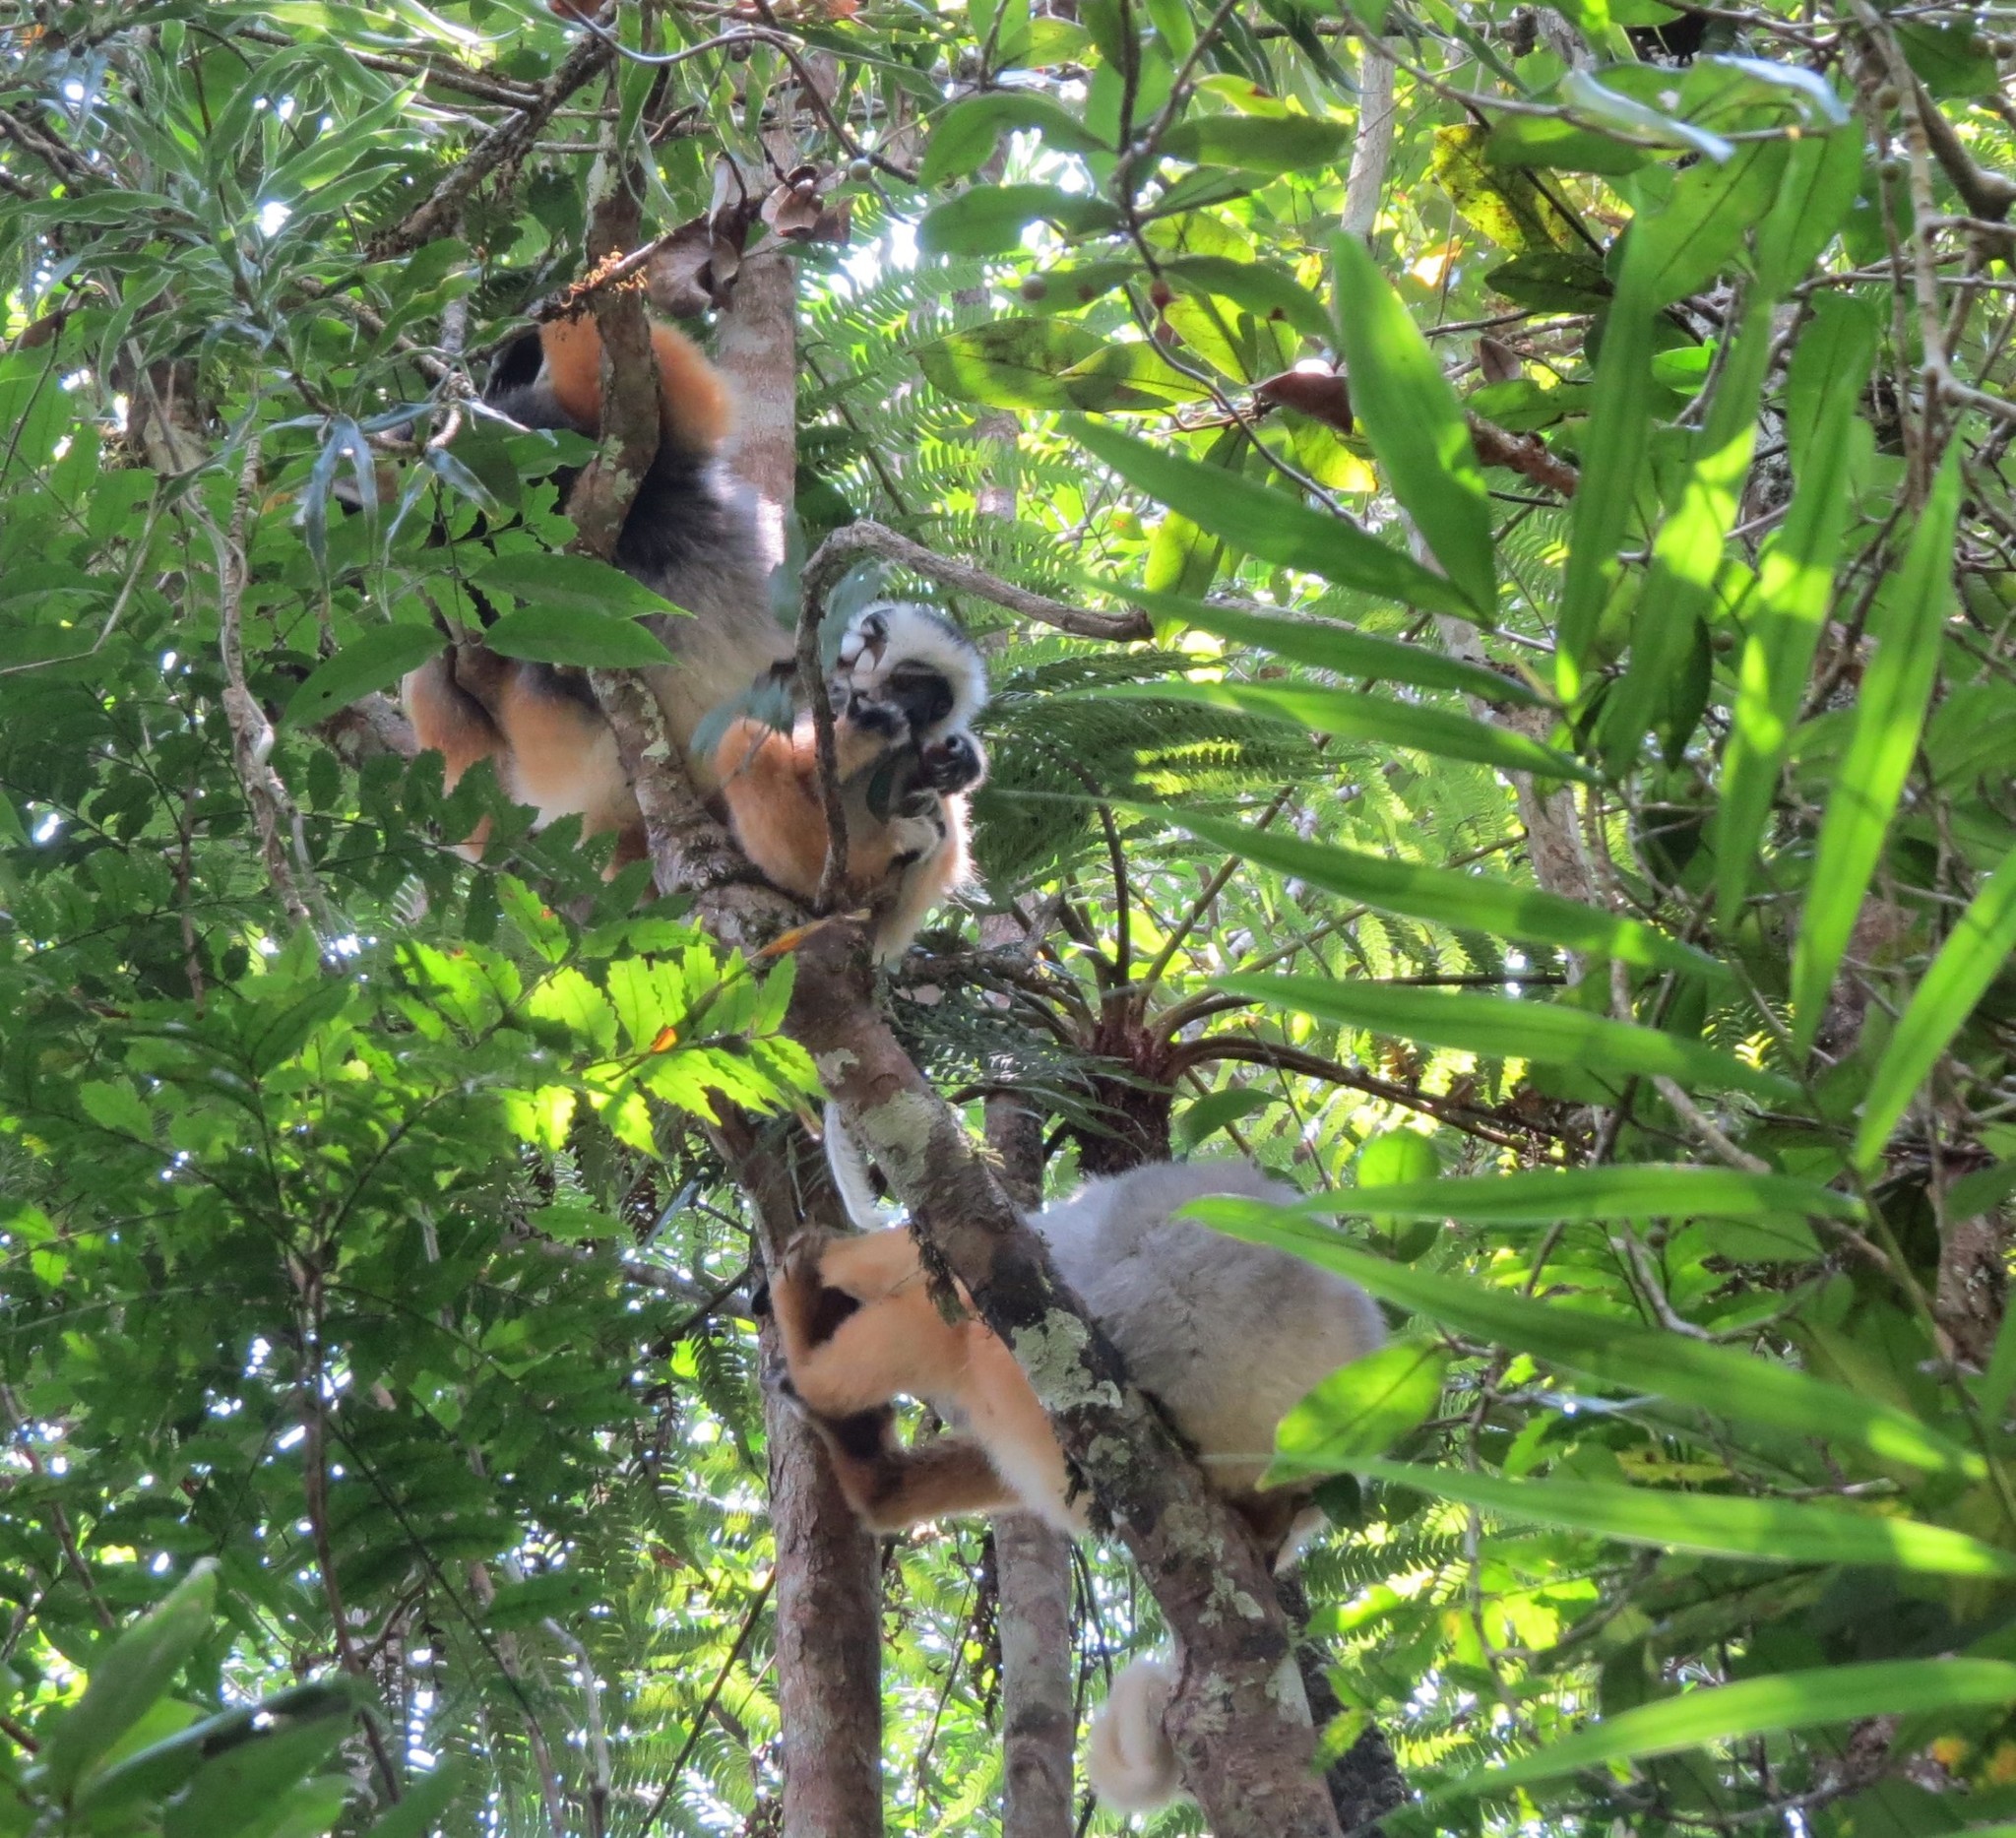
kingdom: Animalia
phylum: Chordata
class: Mammalia
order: Primates
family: Indriidae
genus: Propithecus
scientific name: Propithecus diadema
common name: Diademed sifaka
